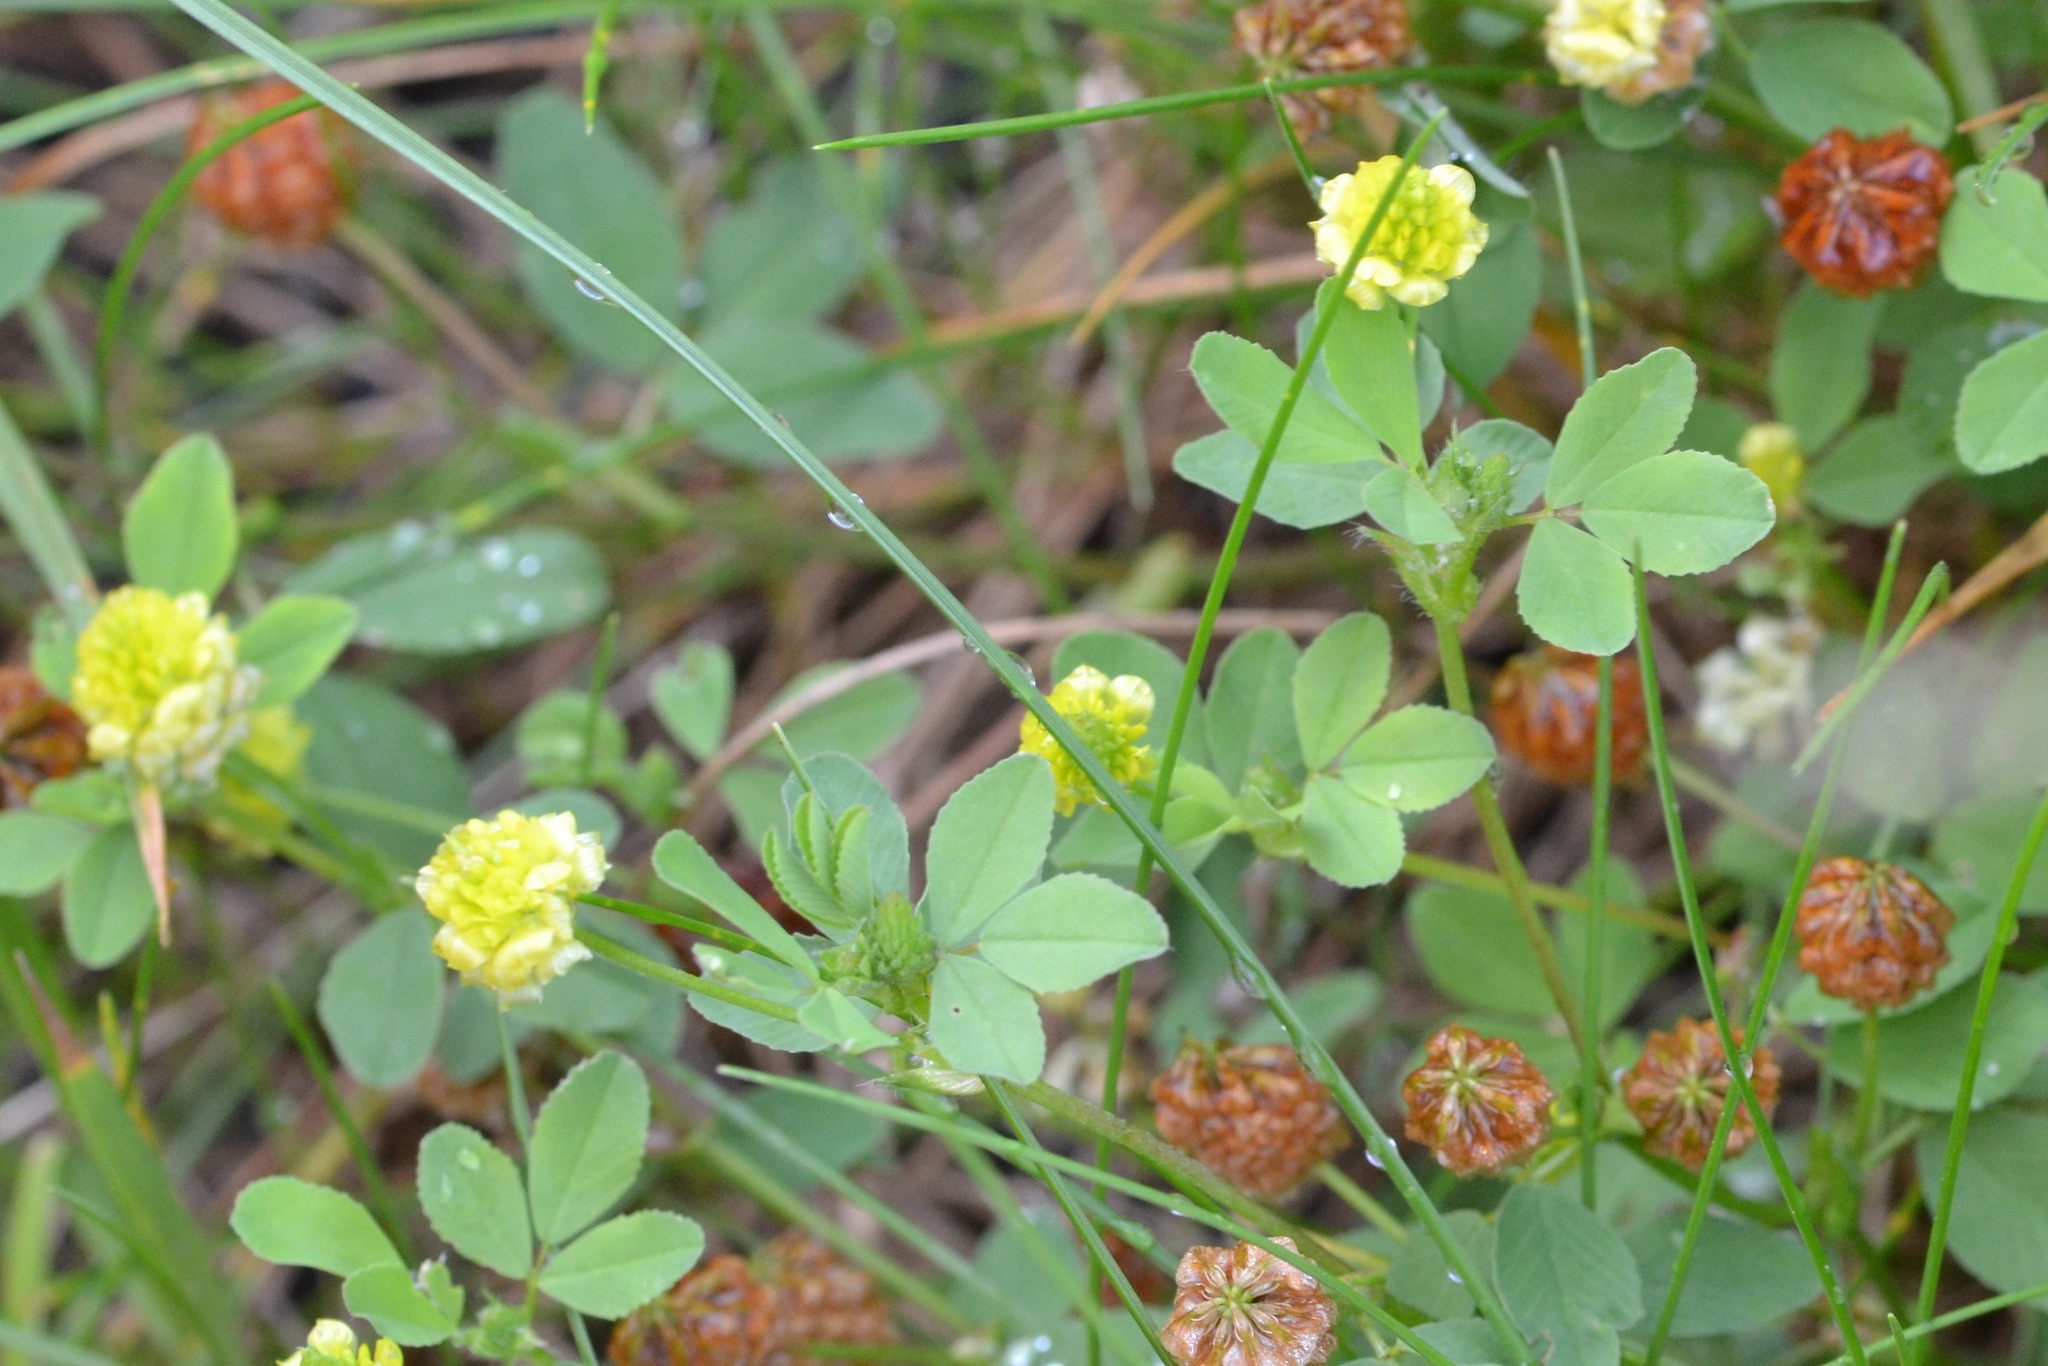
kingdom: Plantae
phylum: Tracheophyta
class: Magnoliopsida
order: Fabales
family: Fabaceae
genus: Trifolium
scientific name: Trifolium campestre
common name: Field clover
